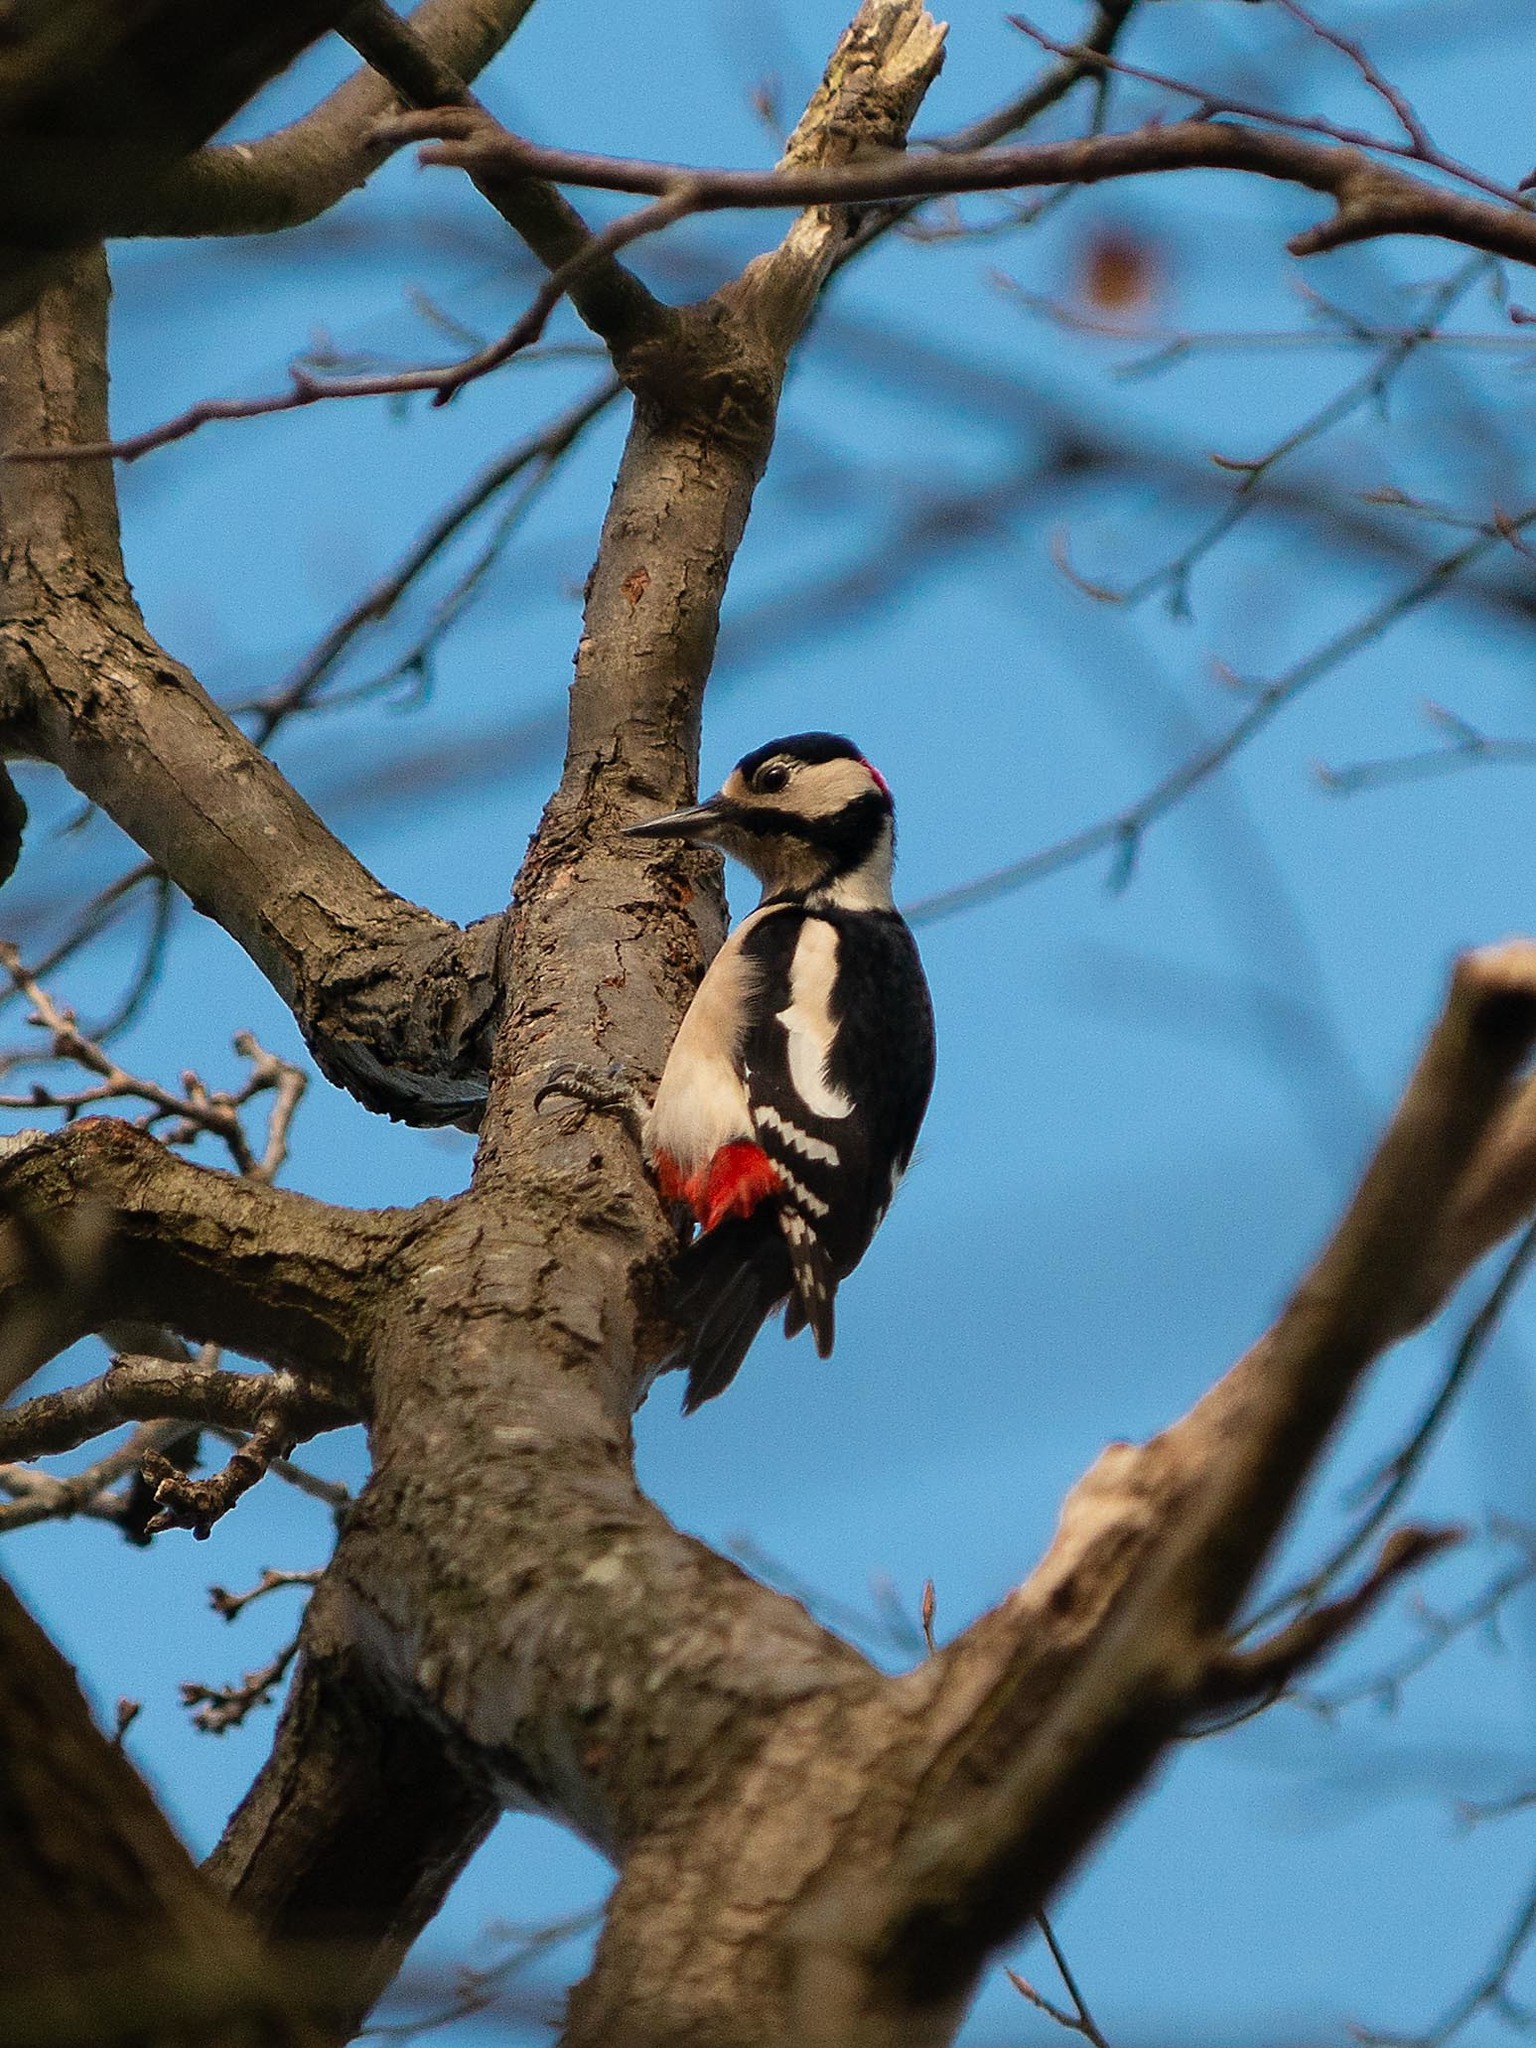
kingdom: Animalia
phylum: Chordata
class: Aves
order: Piciformes
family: Picidae
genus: Dendrocopos
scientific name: Dendrocopos major
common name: Great spotted woodpecker
